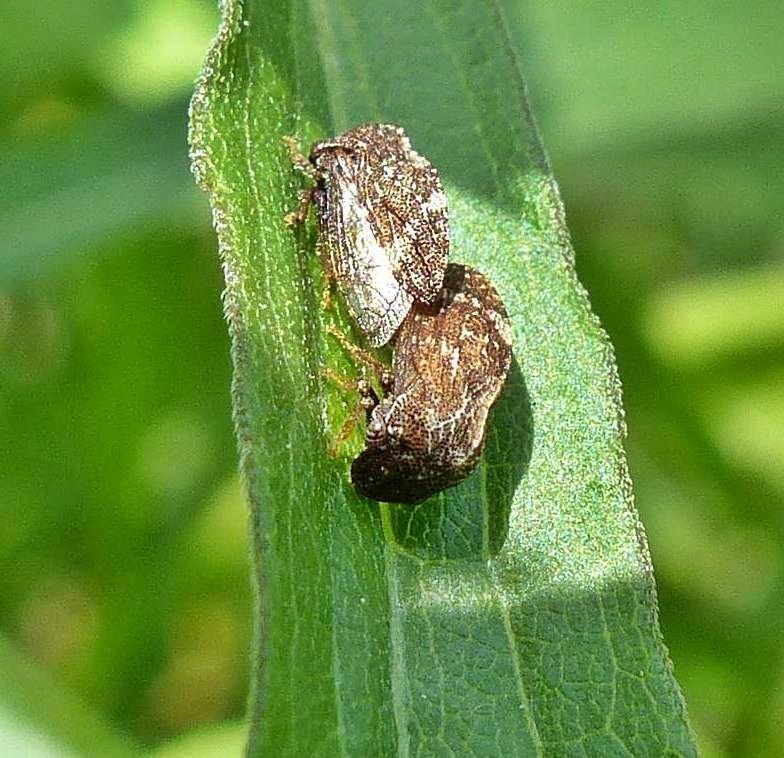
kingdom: Animalia
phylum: Arthropoda
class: Insecta
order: Hemiptera
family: Membracidae
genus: Publilia
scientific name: Publilia concava
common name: Aster treehopper
